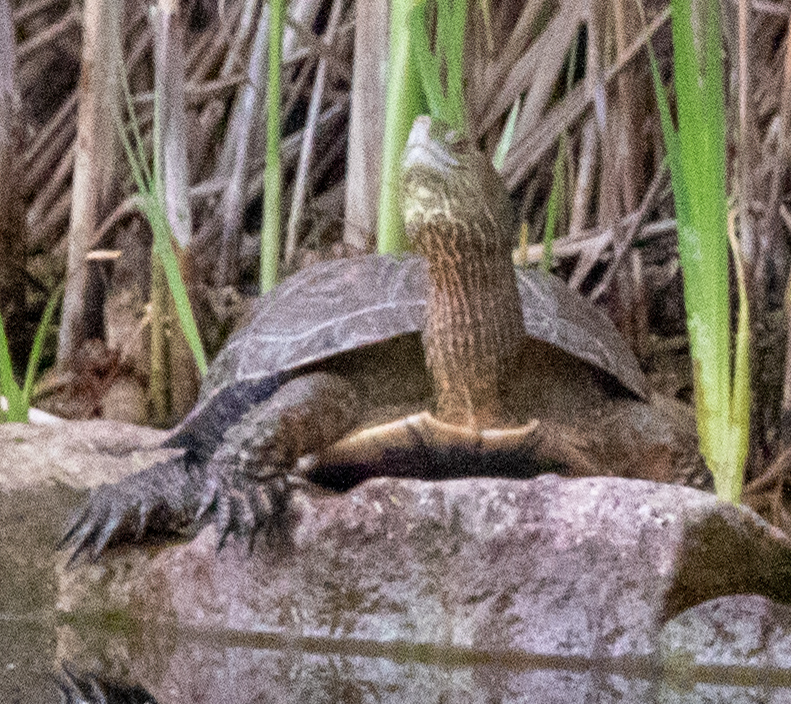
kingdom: Animalia
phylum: Chordata
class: Testudines
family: Geoemydidae
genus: Mauremys
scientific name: Mauremys leprosa
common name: Mediterranean pond turtle
